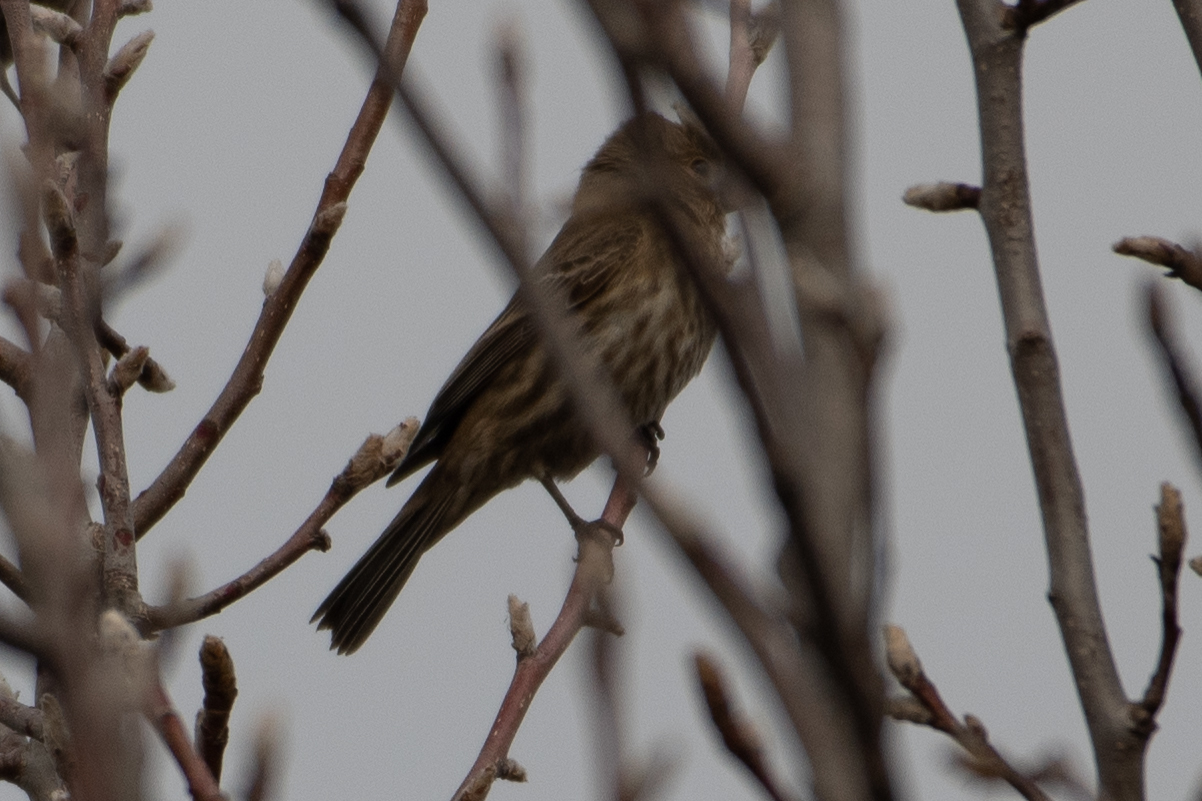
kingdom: Animalia
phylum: Chordata
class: Aves
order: Passeriformes
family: Fringillidae
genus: Haemorhous
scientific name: Haemorhous mexicanus
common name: House finch
